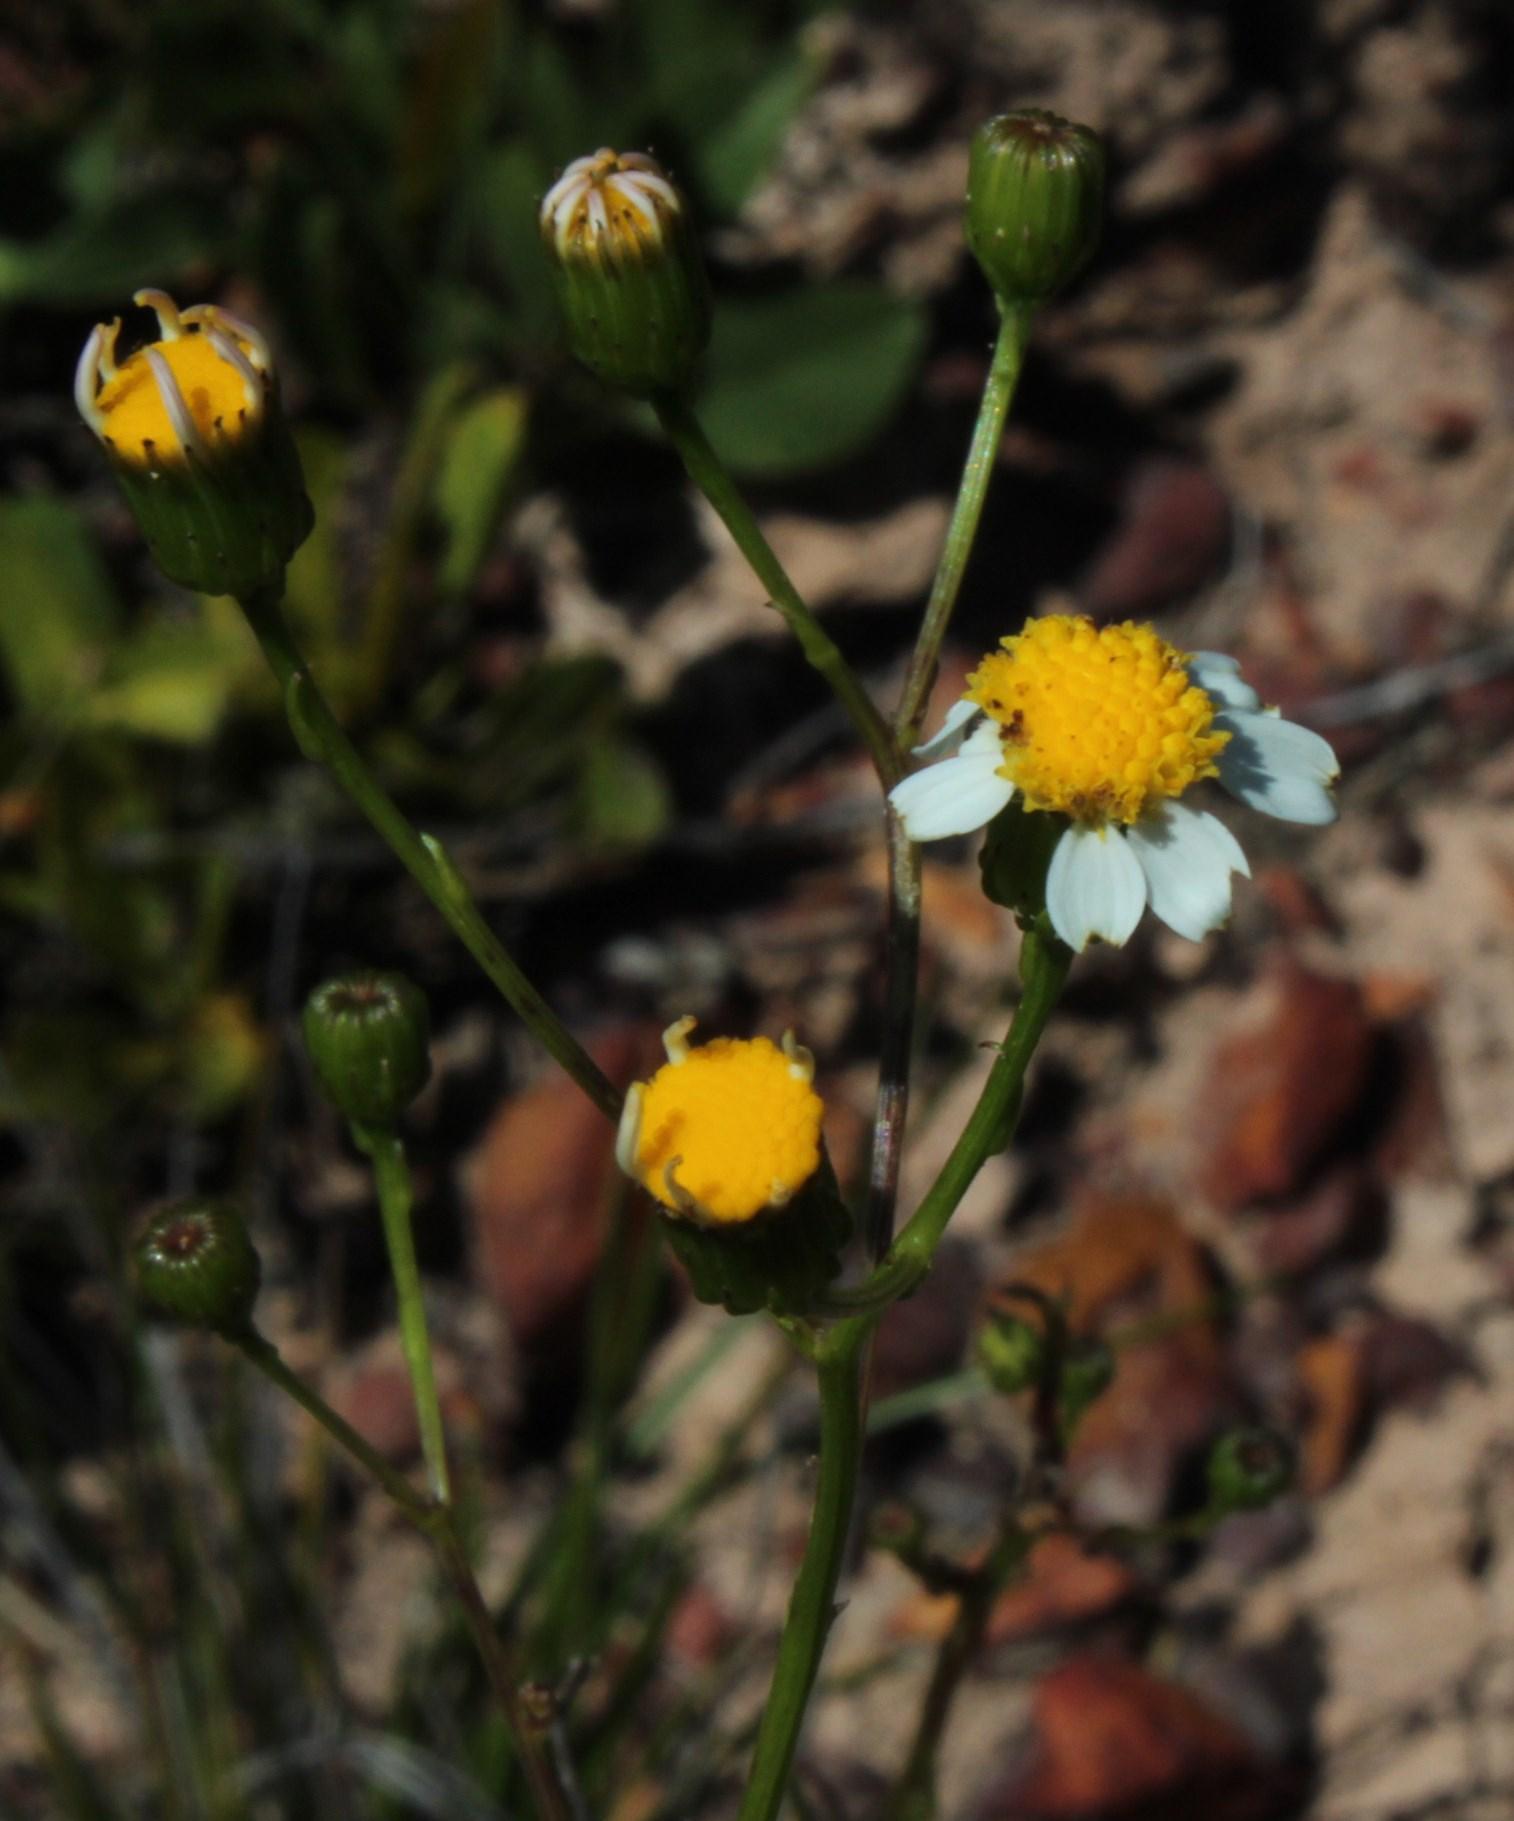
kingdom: Plantae
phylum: Tracheophyta
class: Magnoliopsida
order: Asterales
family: Asteraceae
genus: Senecio
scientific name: Senecio umbellatus
